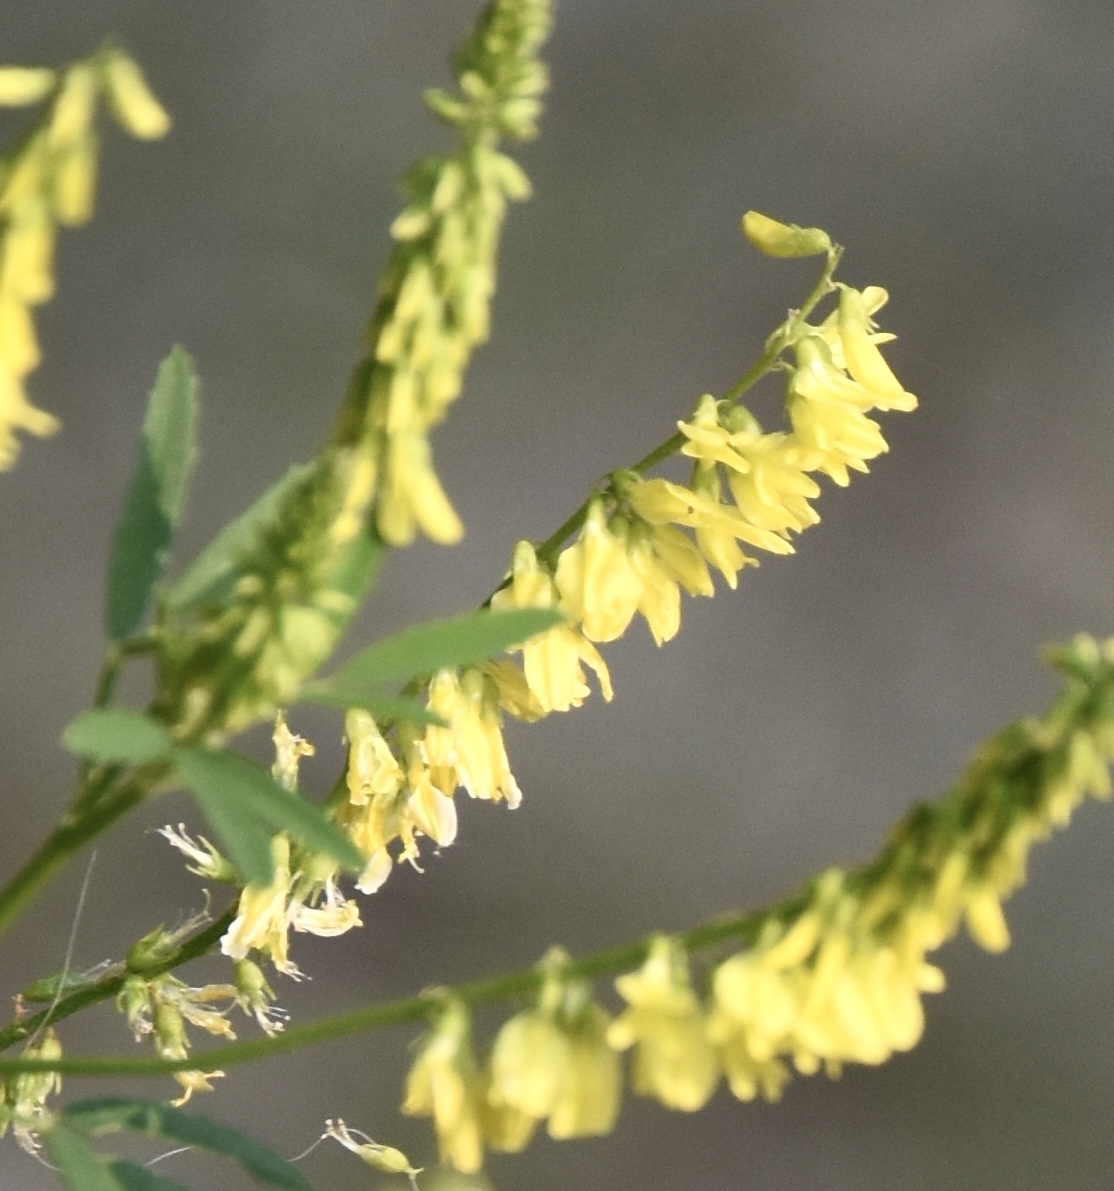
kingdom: Plantae
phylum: Tracheophyta
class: Magnoliopsida
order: Fabales
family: Fabaceae
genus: Melilotus
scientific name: Melilotus officinalis
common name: Sweetclover
